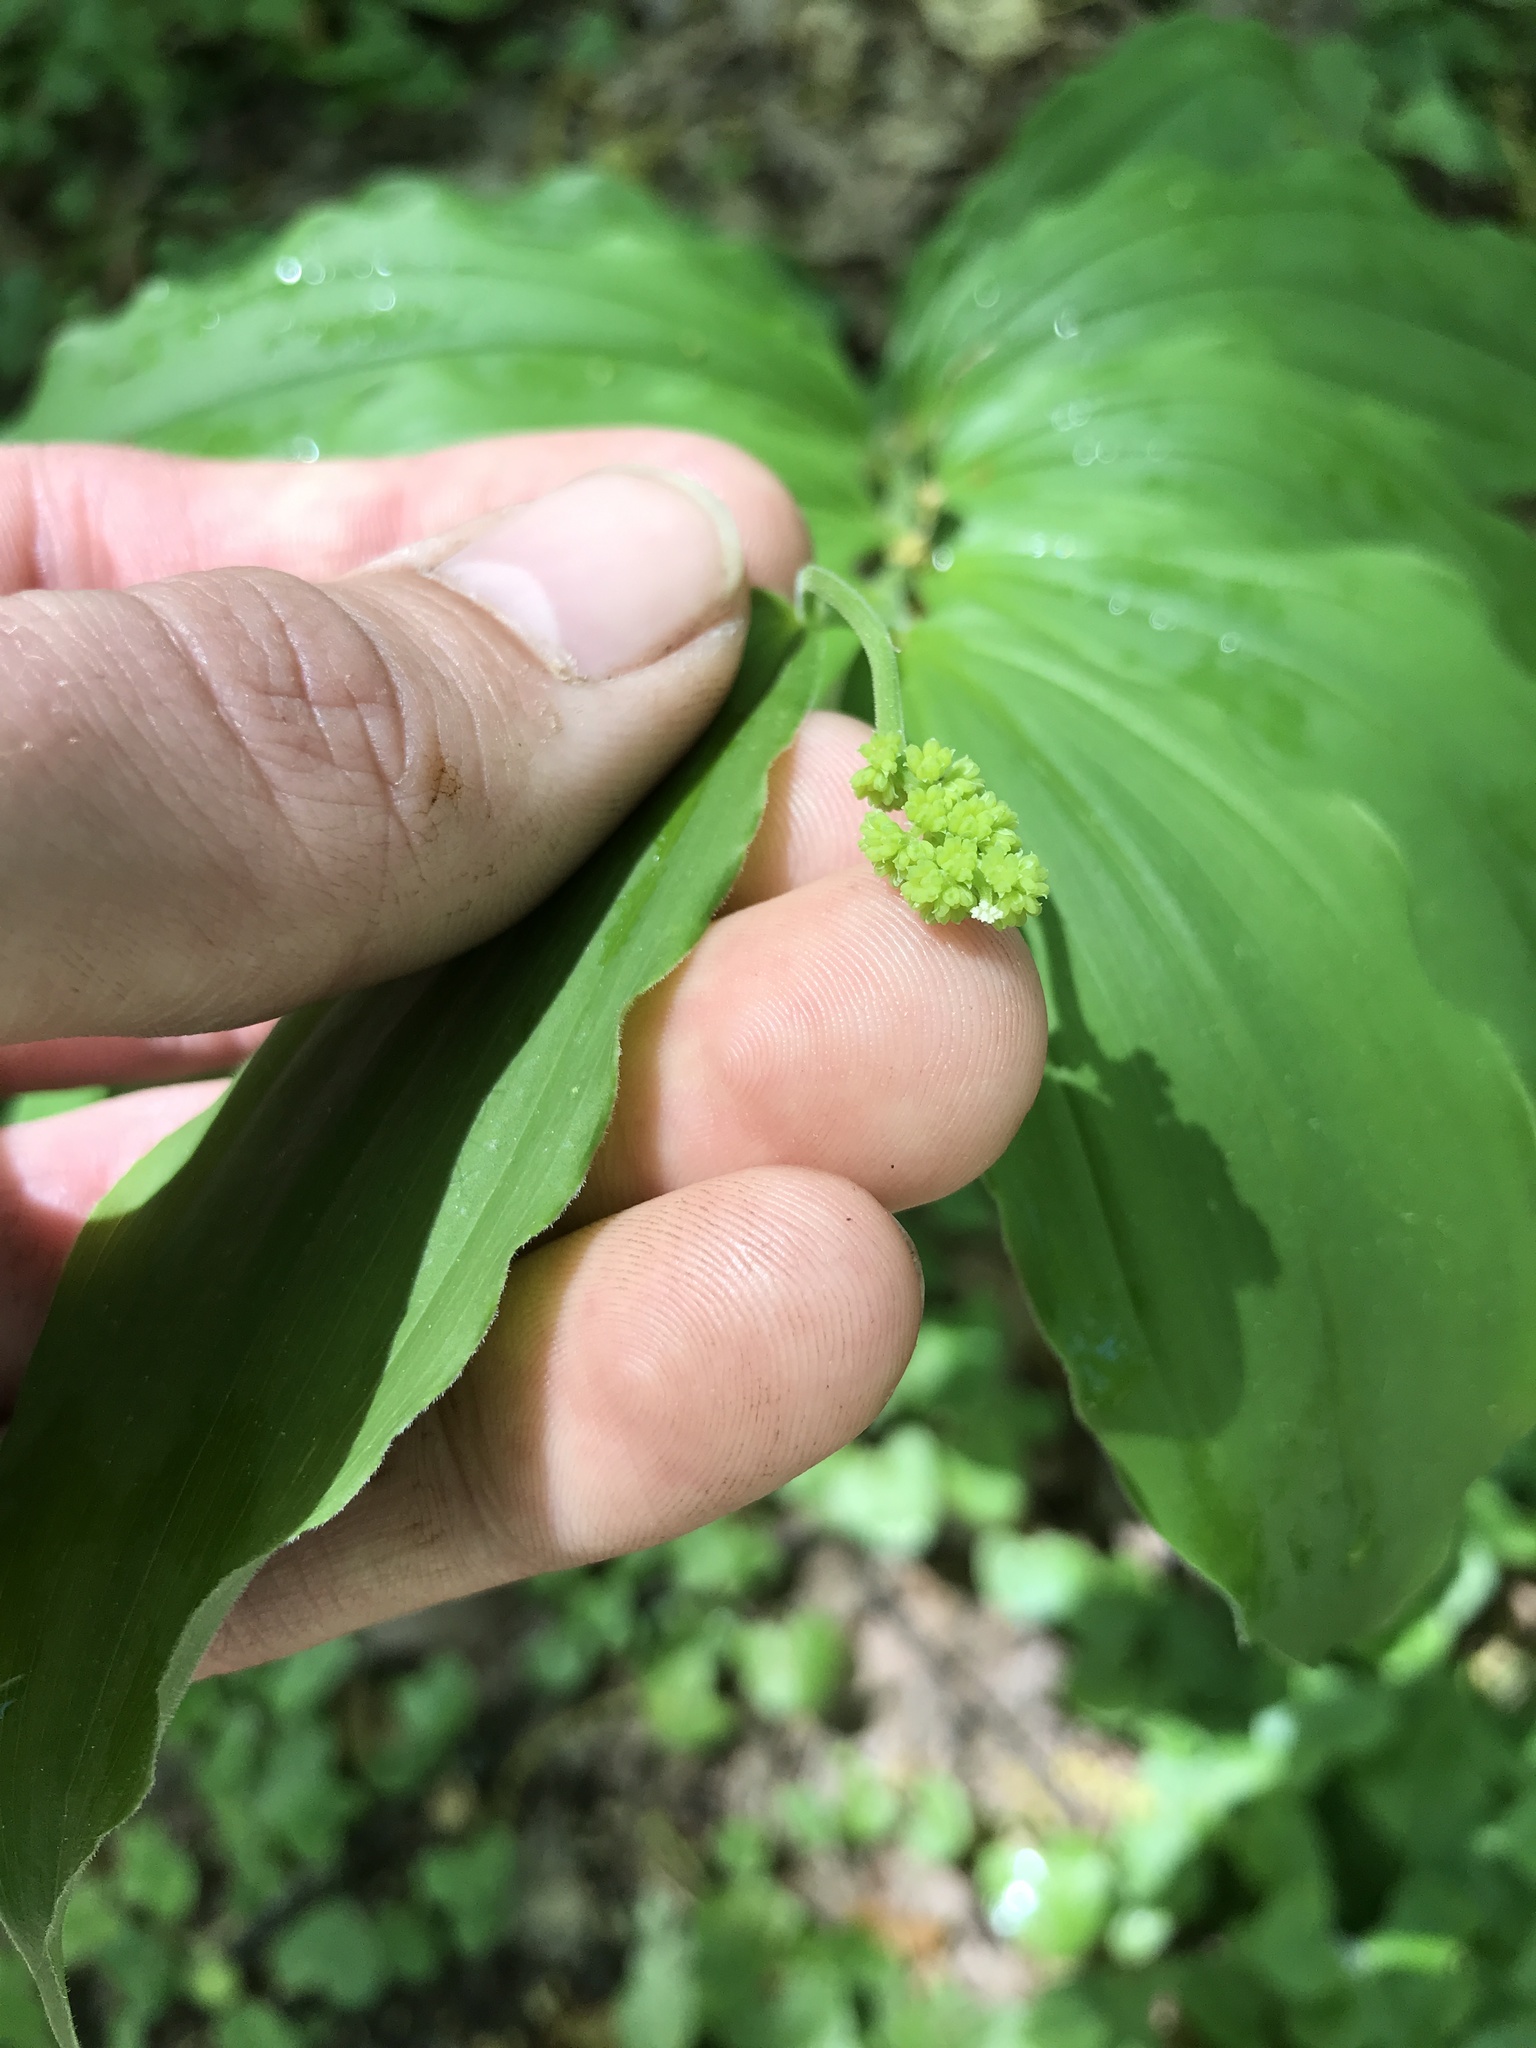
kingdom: Plantae
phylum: Tracheophyta
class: Liliopsida
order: Asparagales
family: Asparagaceae
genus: Maianthemum
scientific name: Maianthemum racemosum
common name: False spikenard
